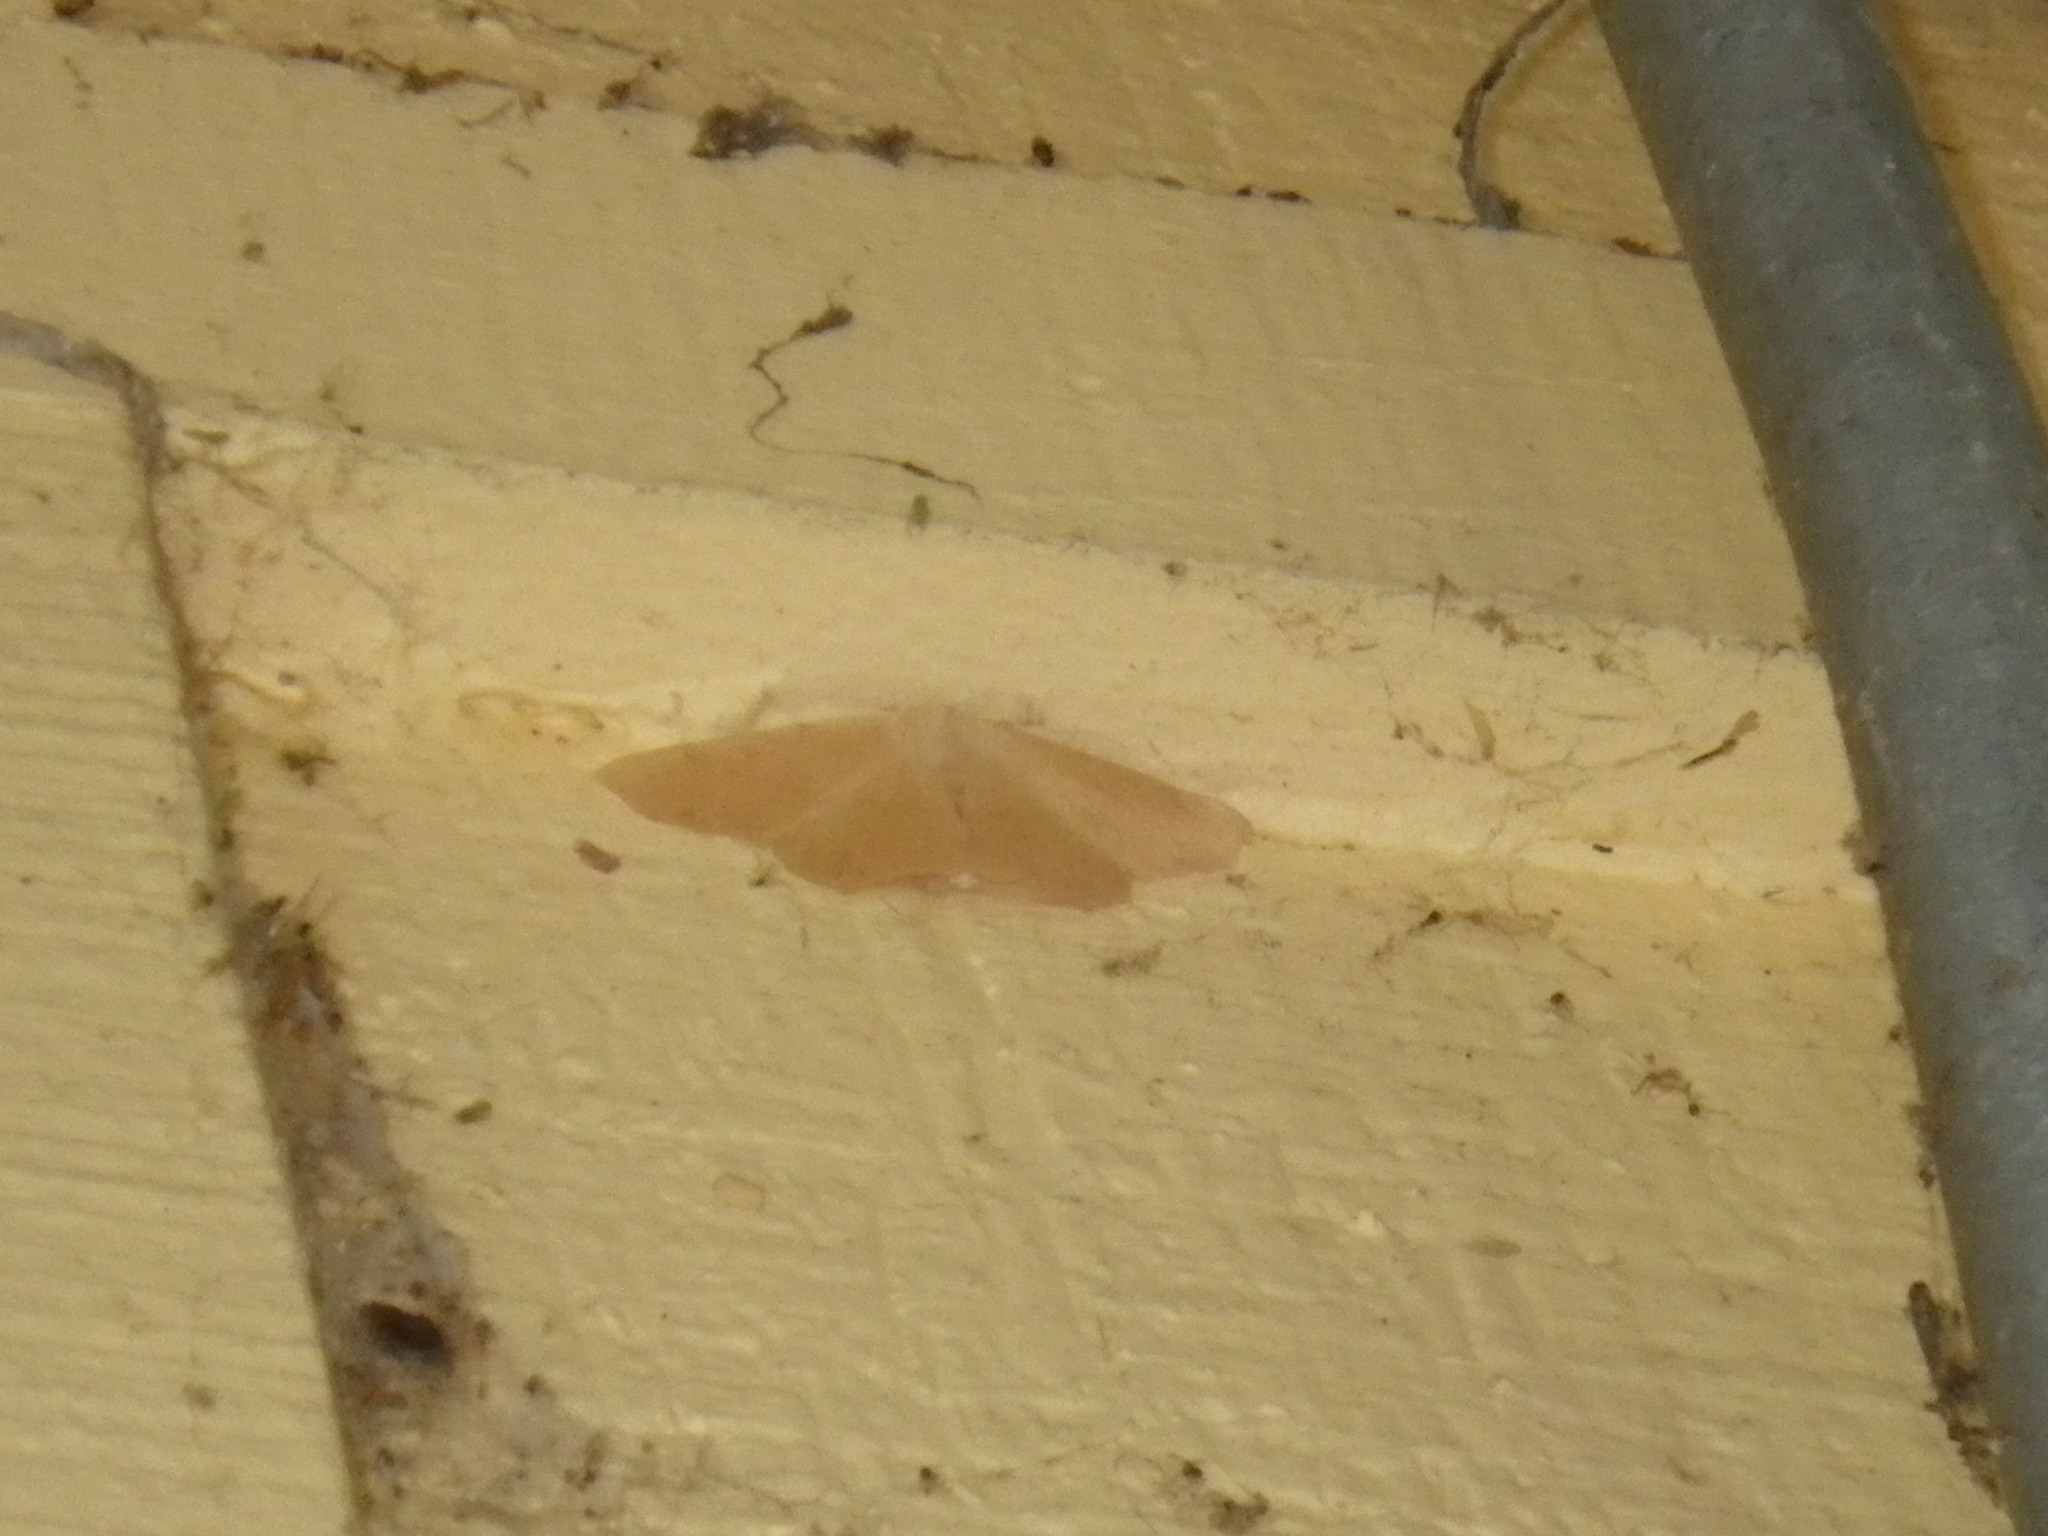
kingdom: Animalia
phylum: Arthropoda
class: Insecta
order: Lepidoptera
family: Geometridae
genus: Sabulodes
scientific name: Sabulodes aegrotata
